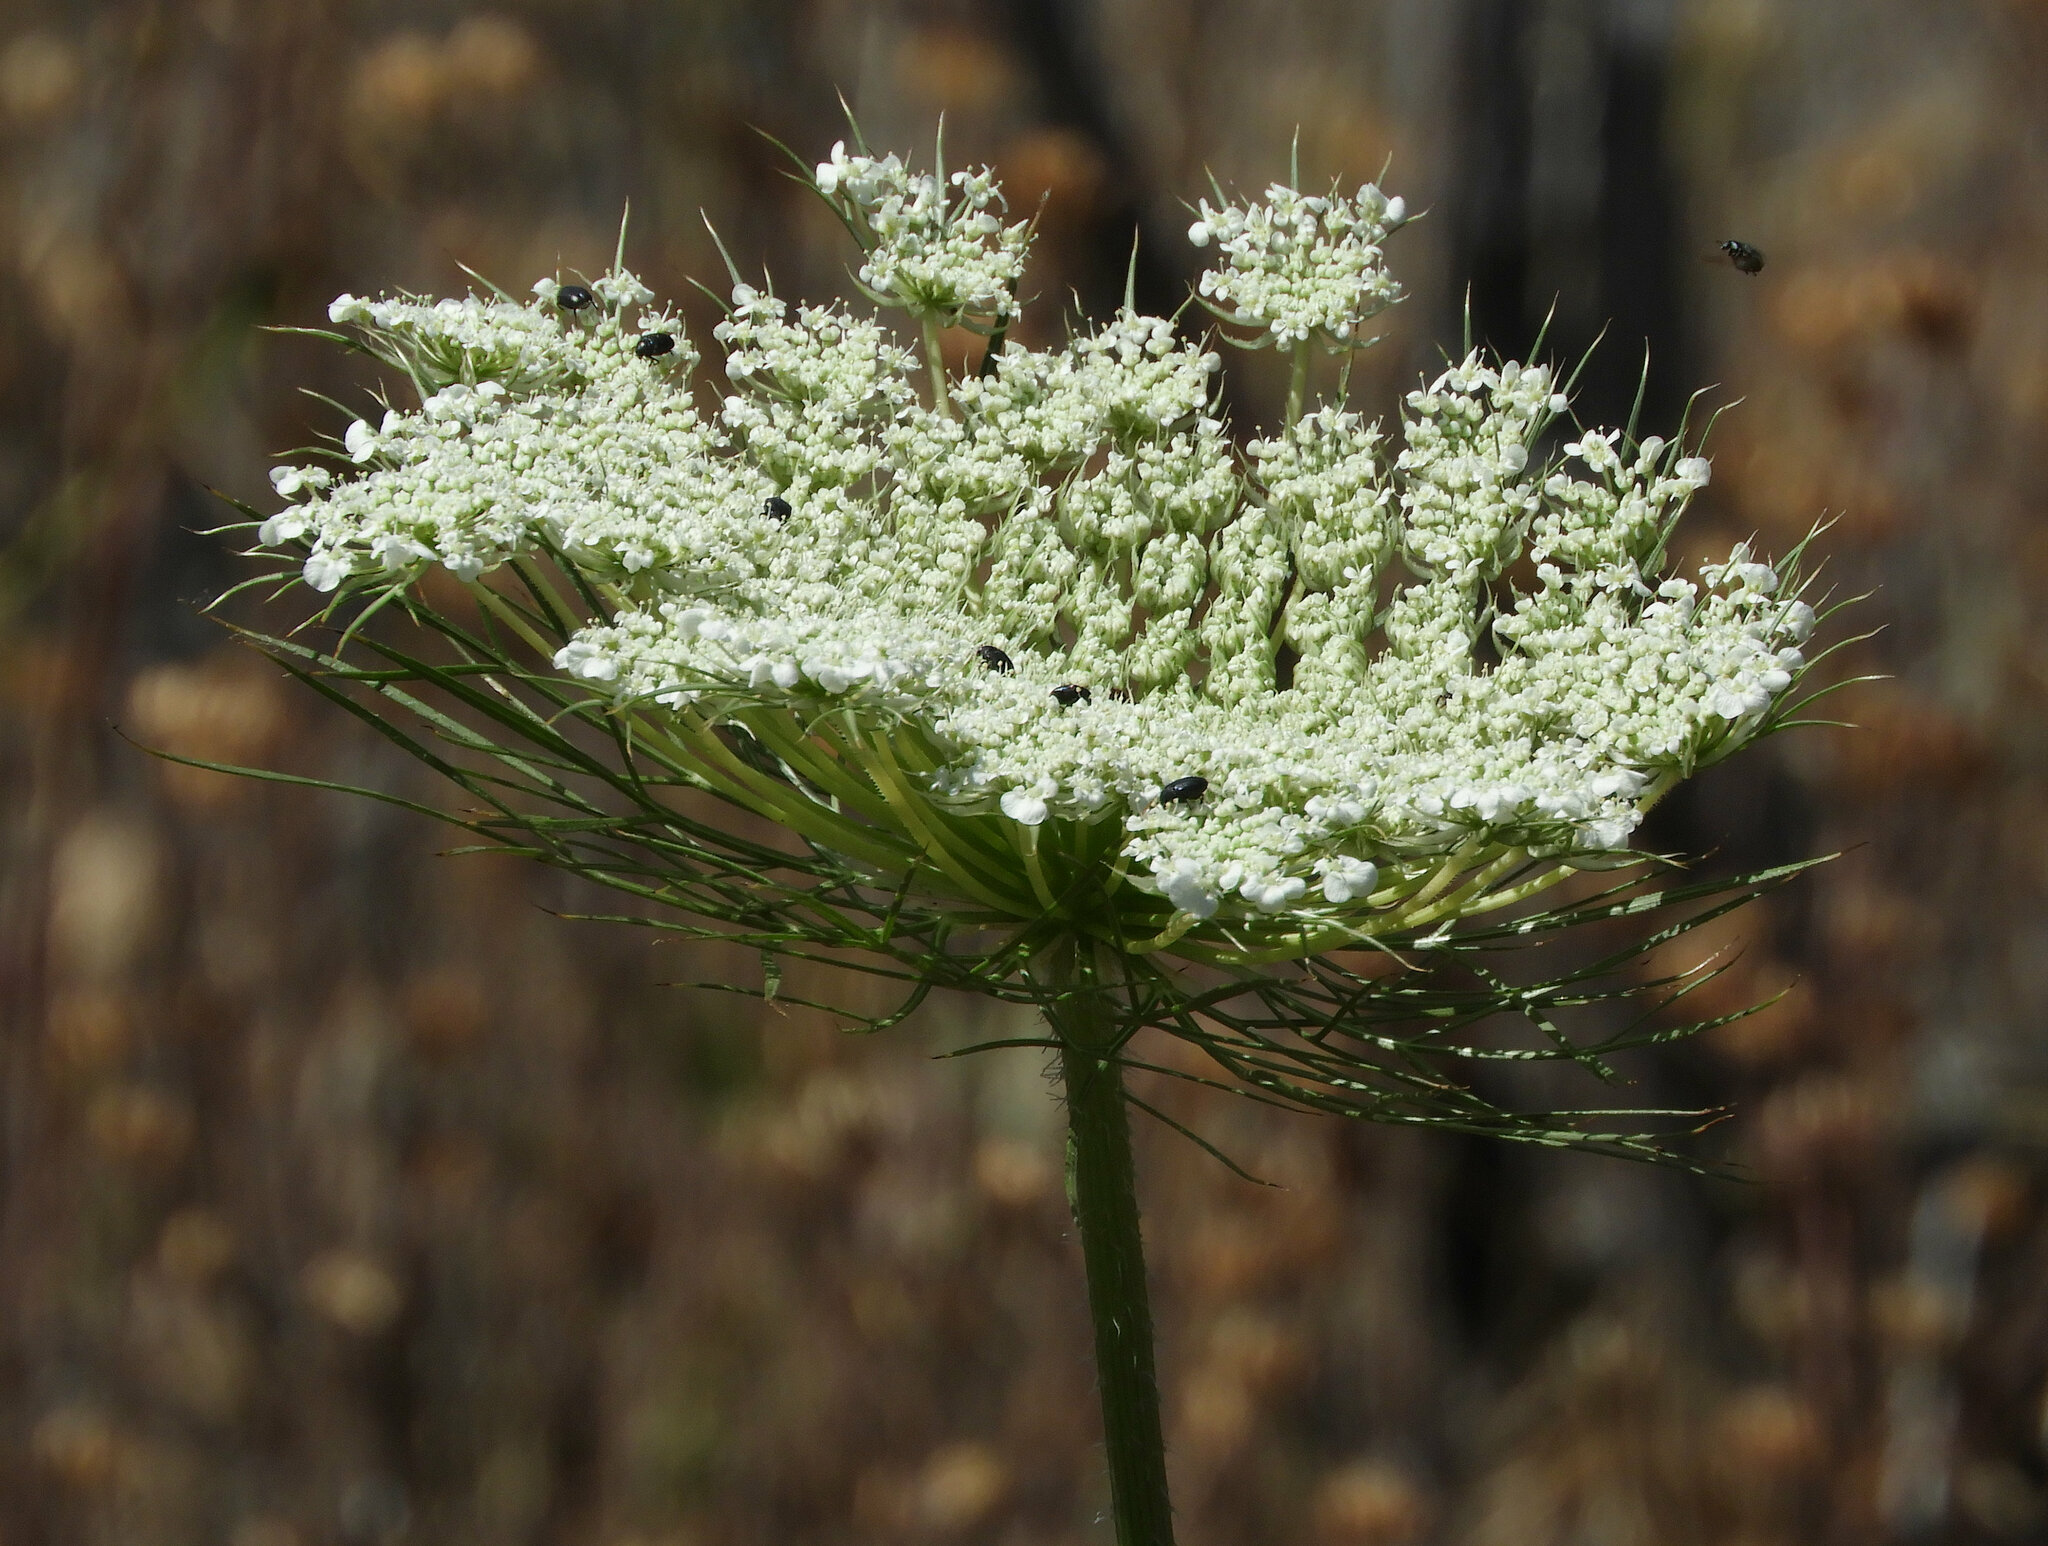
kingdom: Plantae
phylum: Tracheophyta
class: Magnoliopsida
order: Apiales
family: Apiaceae
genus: Daucus
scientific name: Daucus carota
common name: Wild carrot
